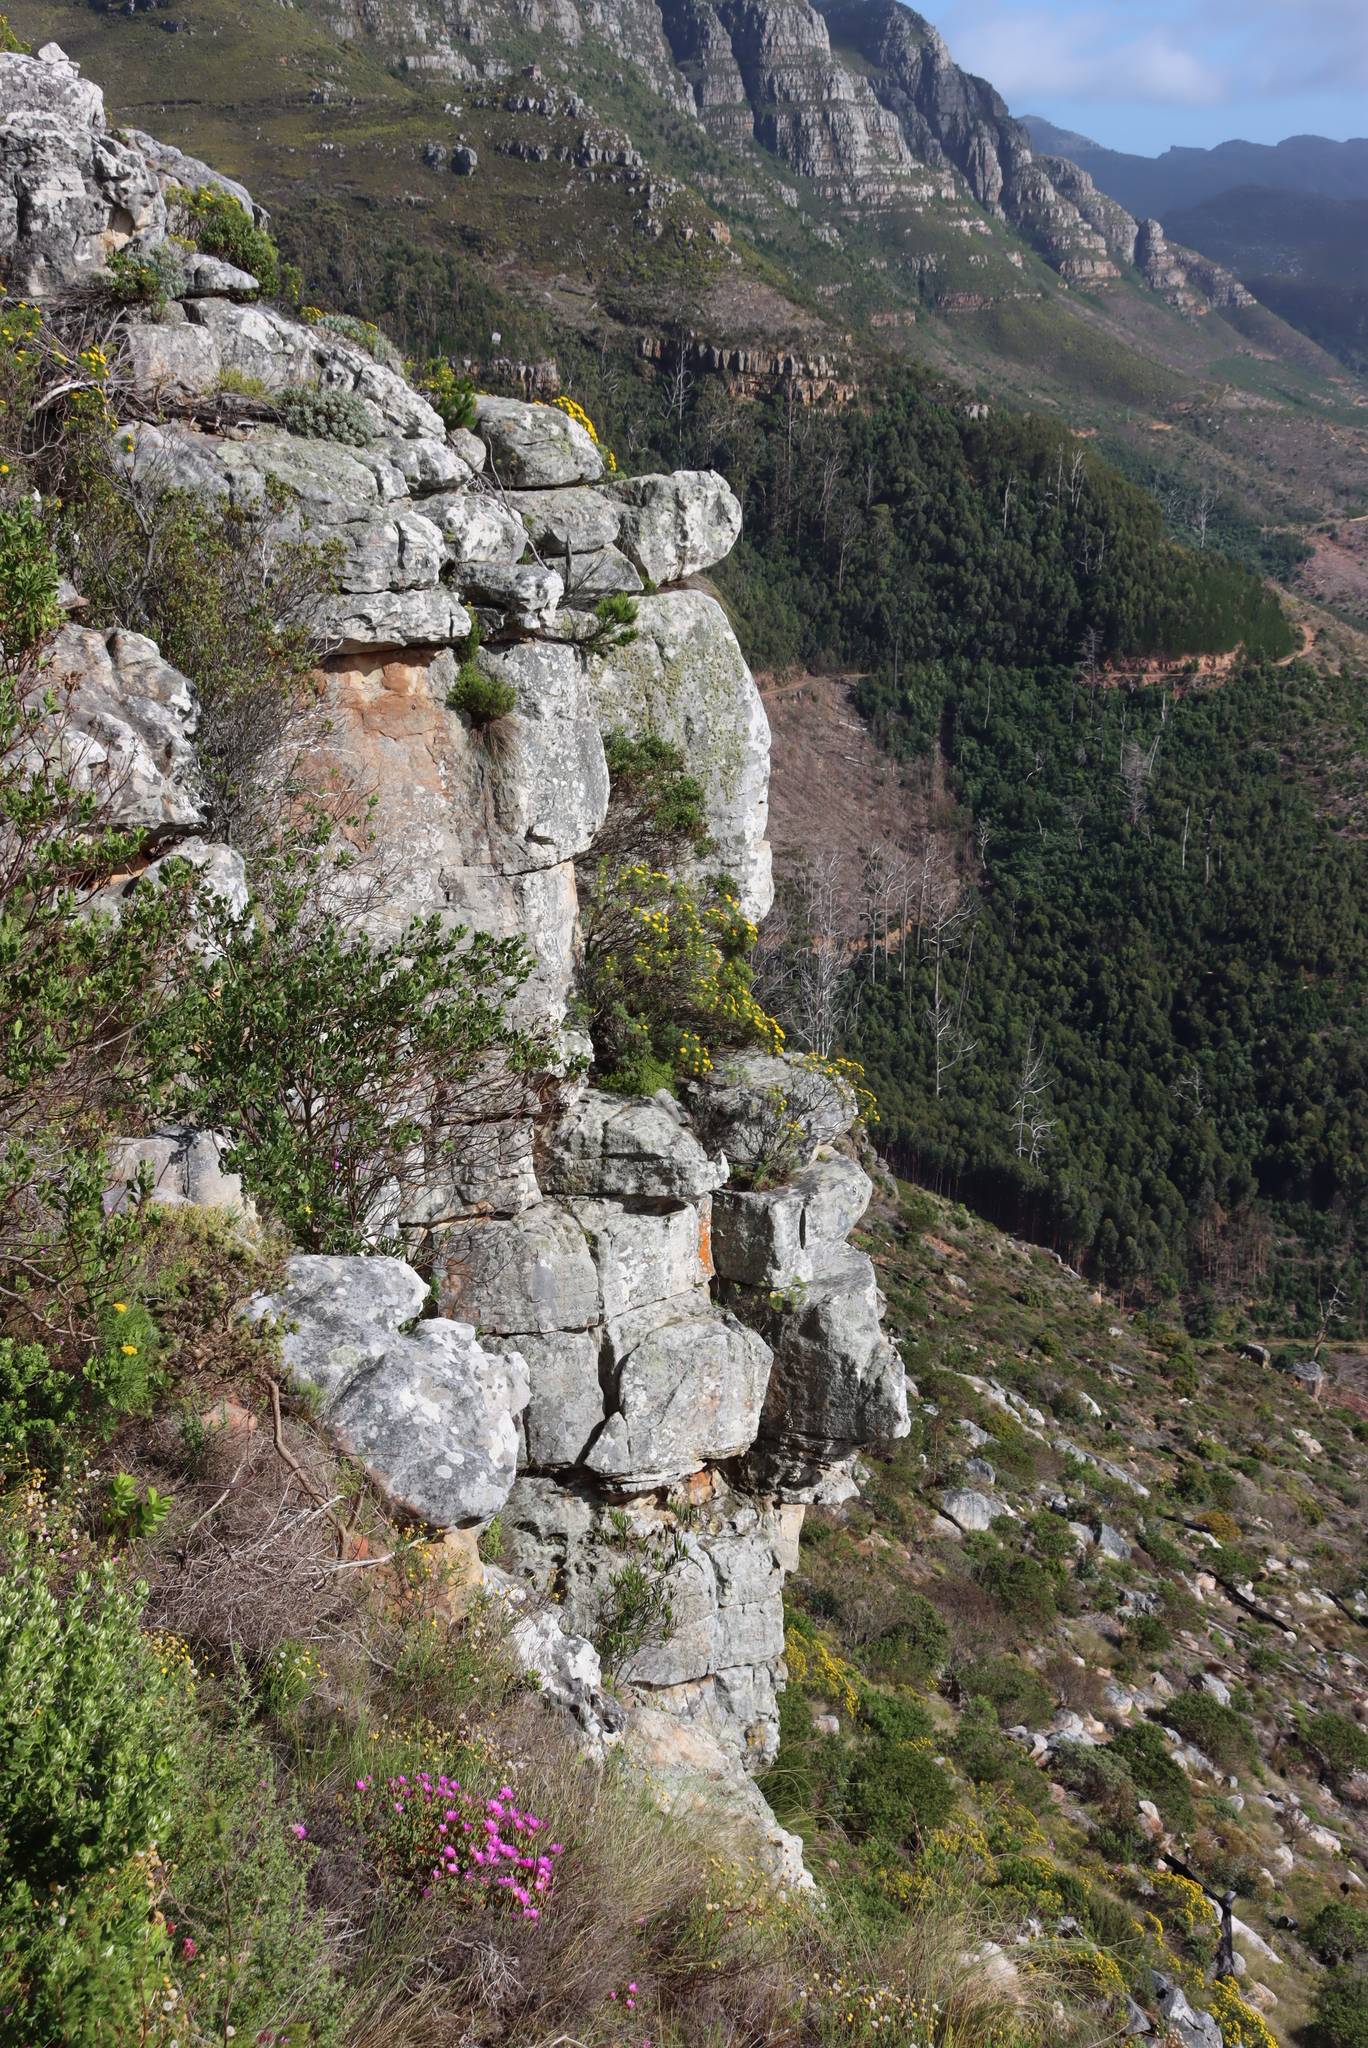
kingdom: Plantae
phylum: Tracheophyta
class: Magnoliopsida
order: Caryophyllales
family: Aizoaceae
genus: Oscularia
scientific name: Oscularia falciformis
